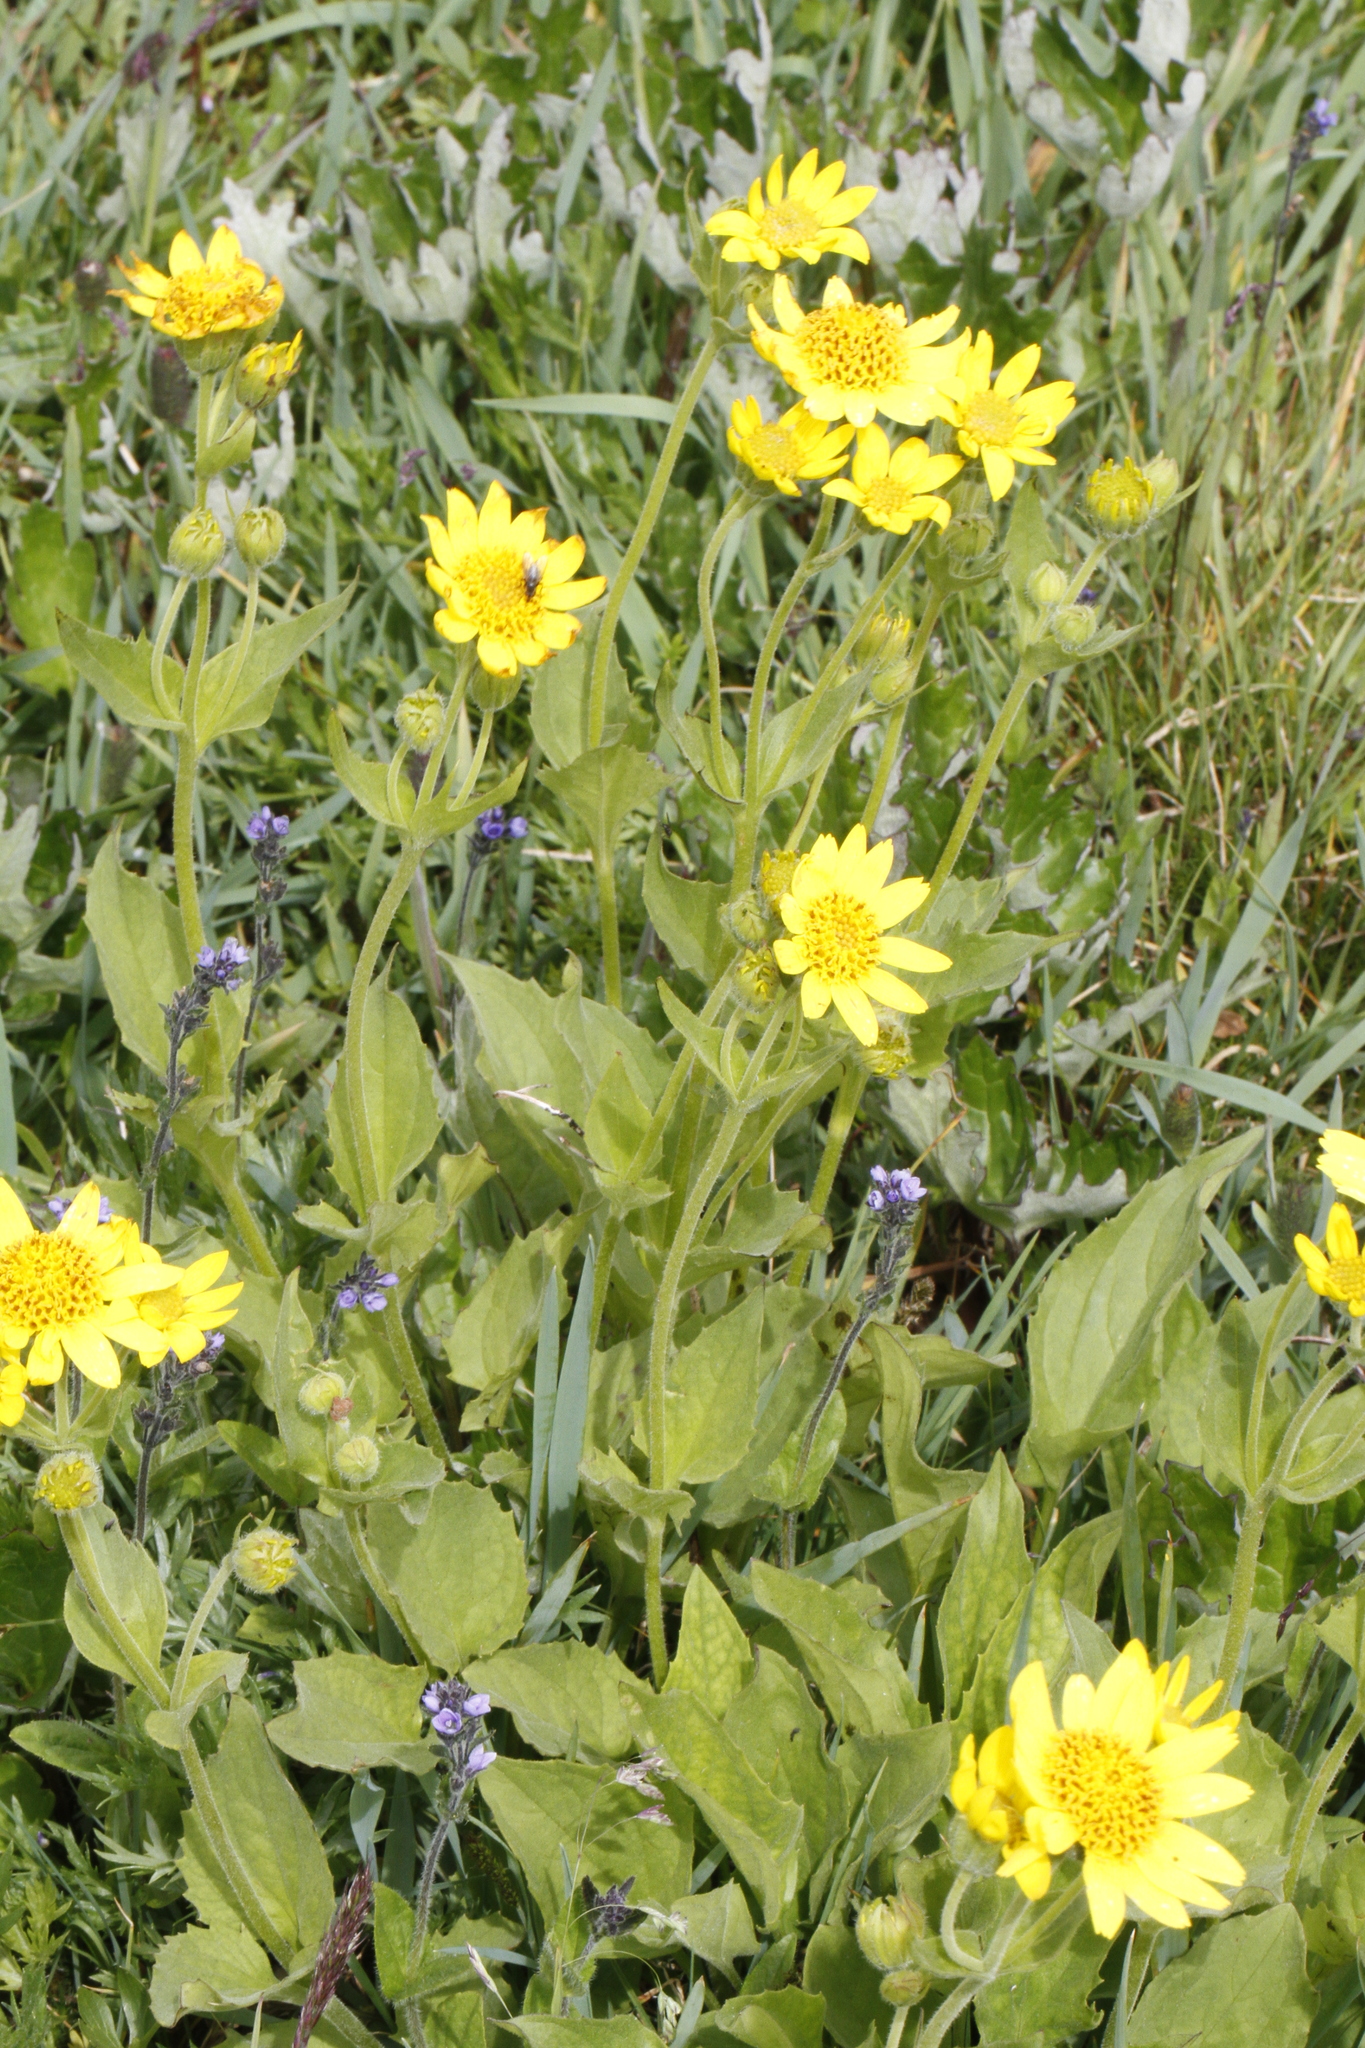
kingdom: Plantae
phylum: Tracheophyta
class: Magnoliopsida
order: Asterales
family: Asteraceae
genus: Arnica
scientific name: Arnica mollis
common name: Hairy arnica
